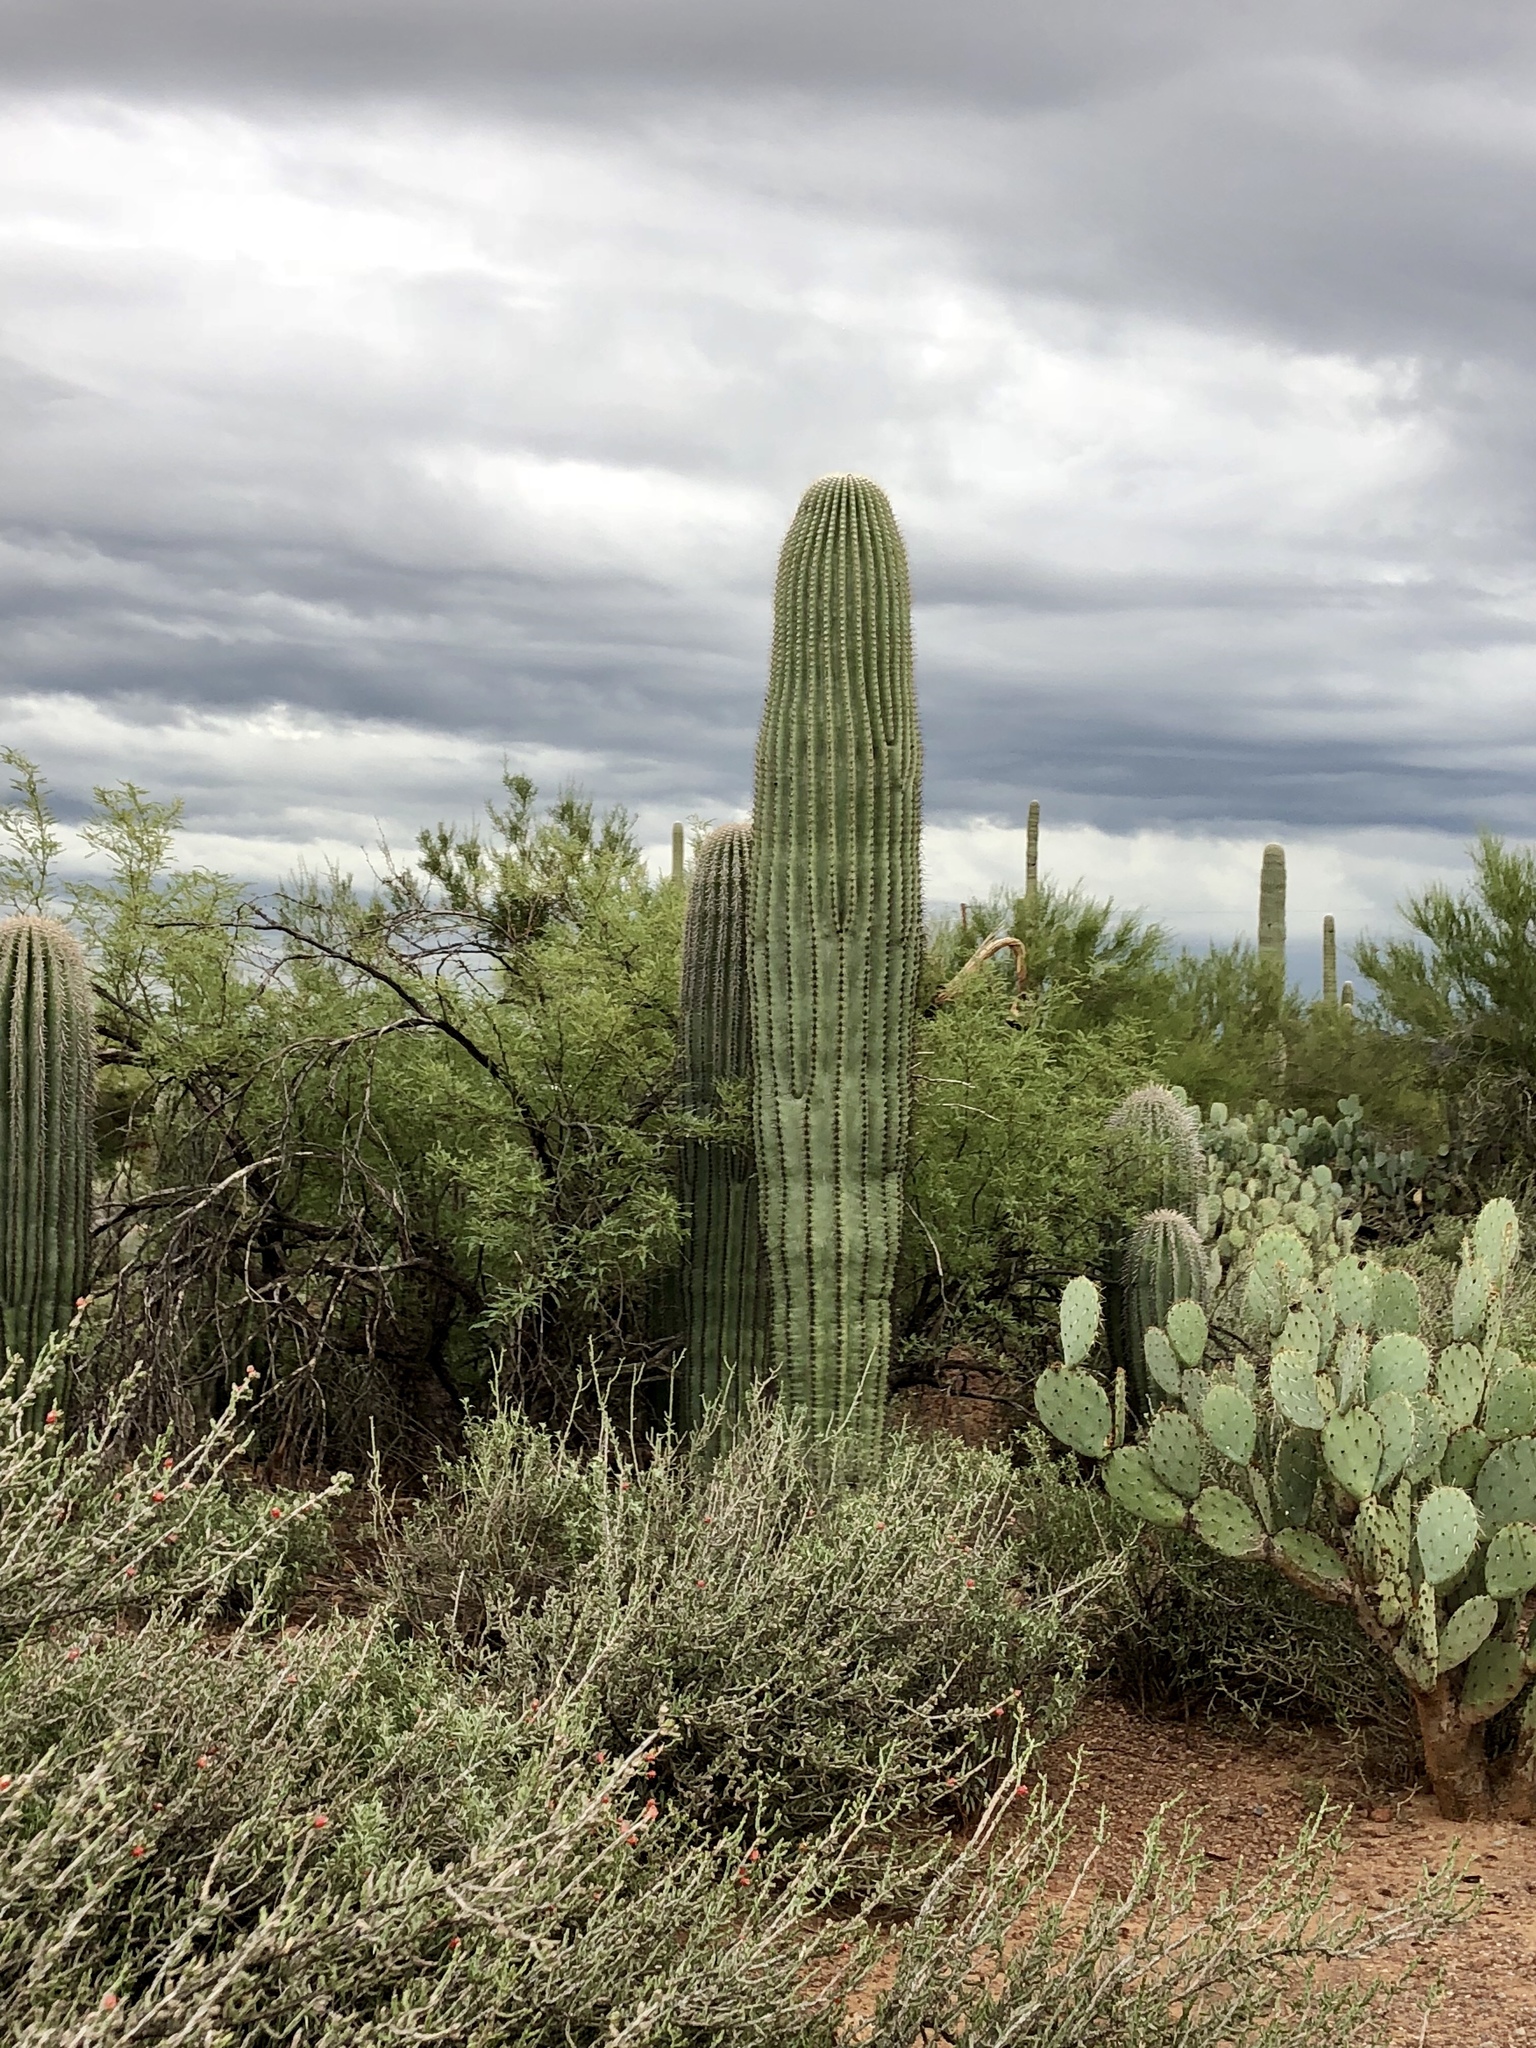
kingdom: Plantae
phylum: Tracheophyta
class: Magnoliopsida
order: Caryophyllales
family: Cactaceae
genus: Carnegiea
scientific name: Carnegiea gigantea
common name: Saguaro
